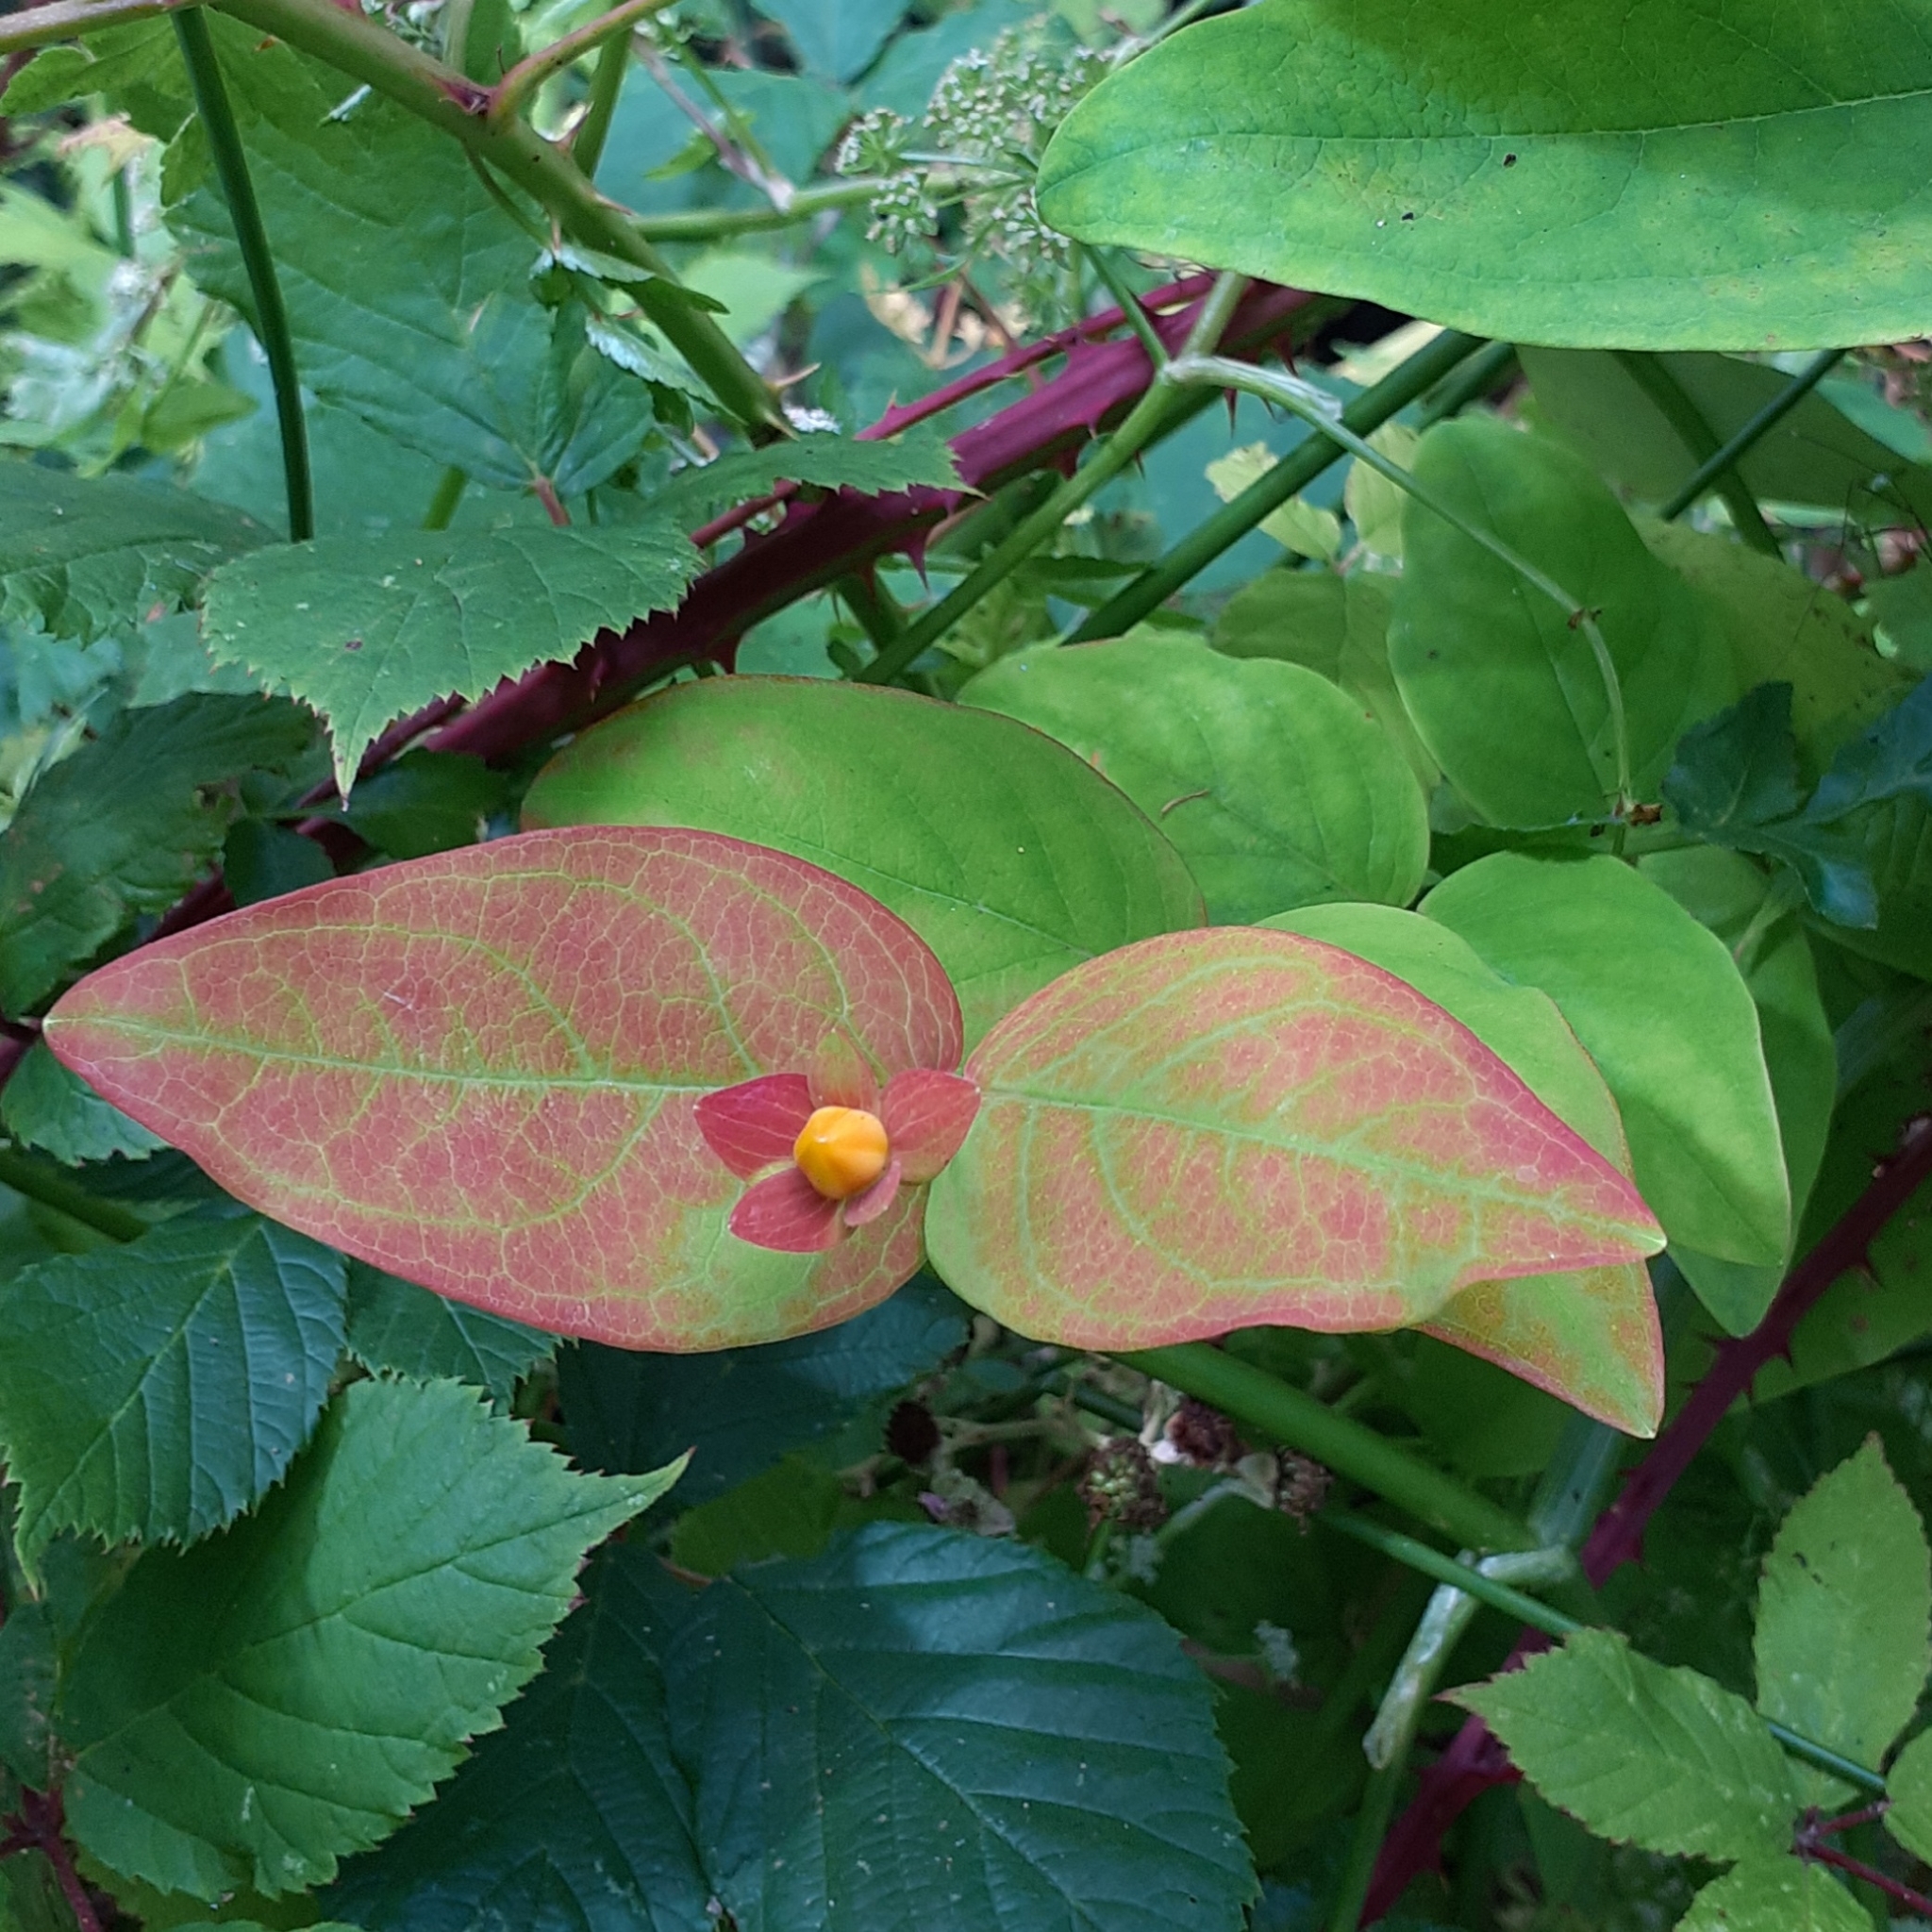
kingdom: Plantae
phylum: Tracheophyta
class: Magnoliopsida
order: Malpighiales
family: Hypericaceae
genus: Hypericum
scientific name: Hypericum androsaemum
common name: Sweet-amber
